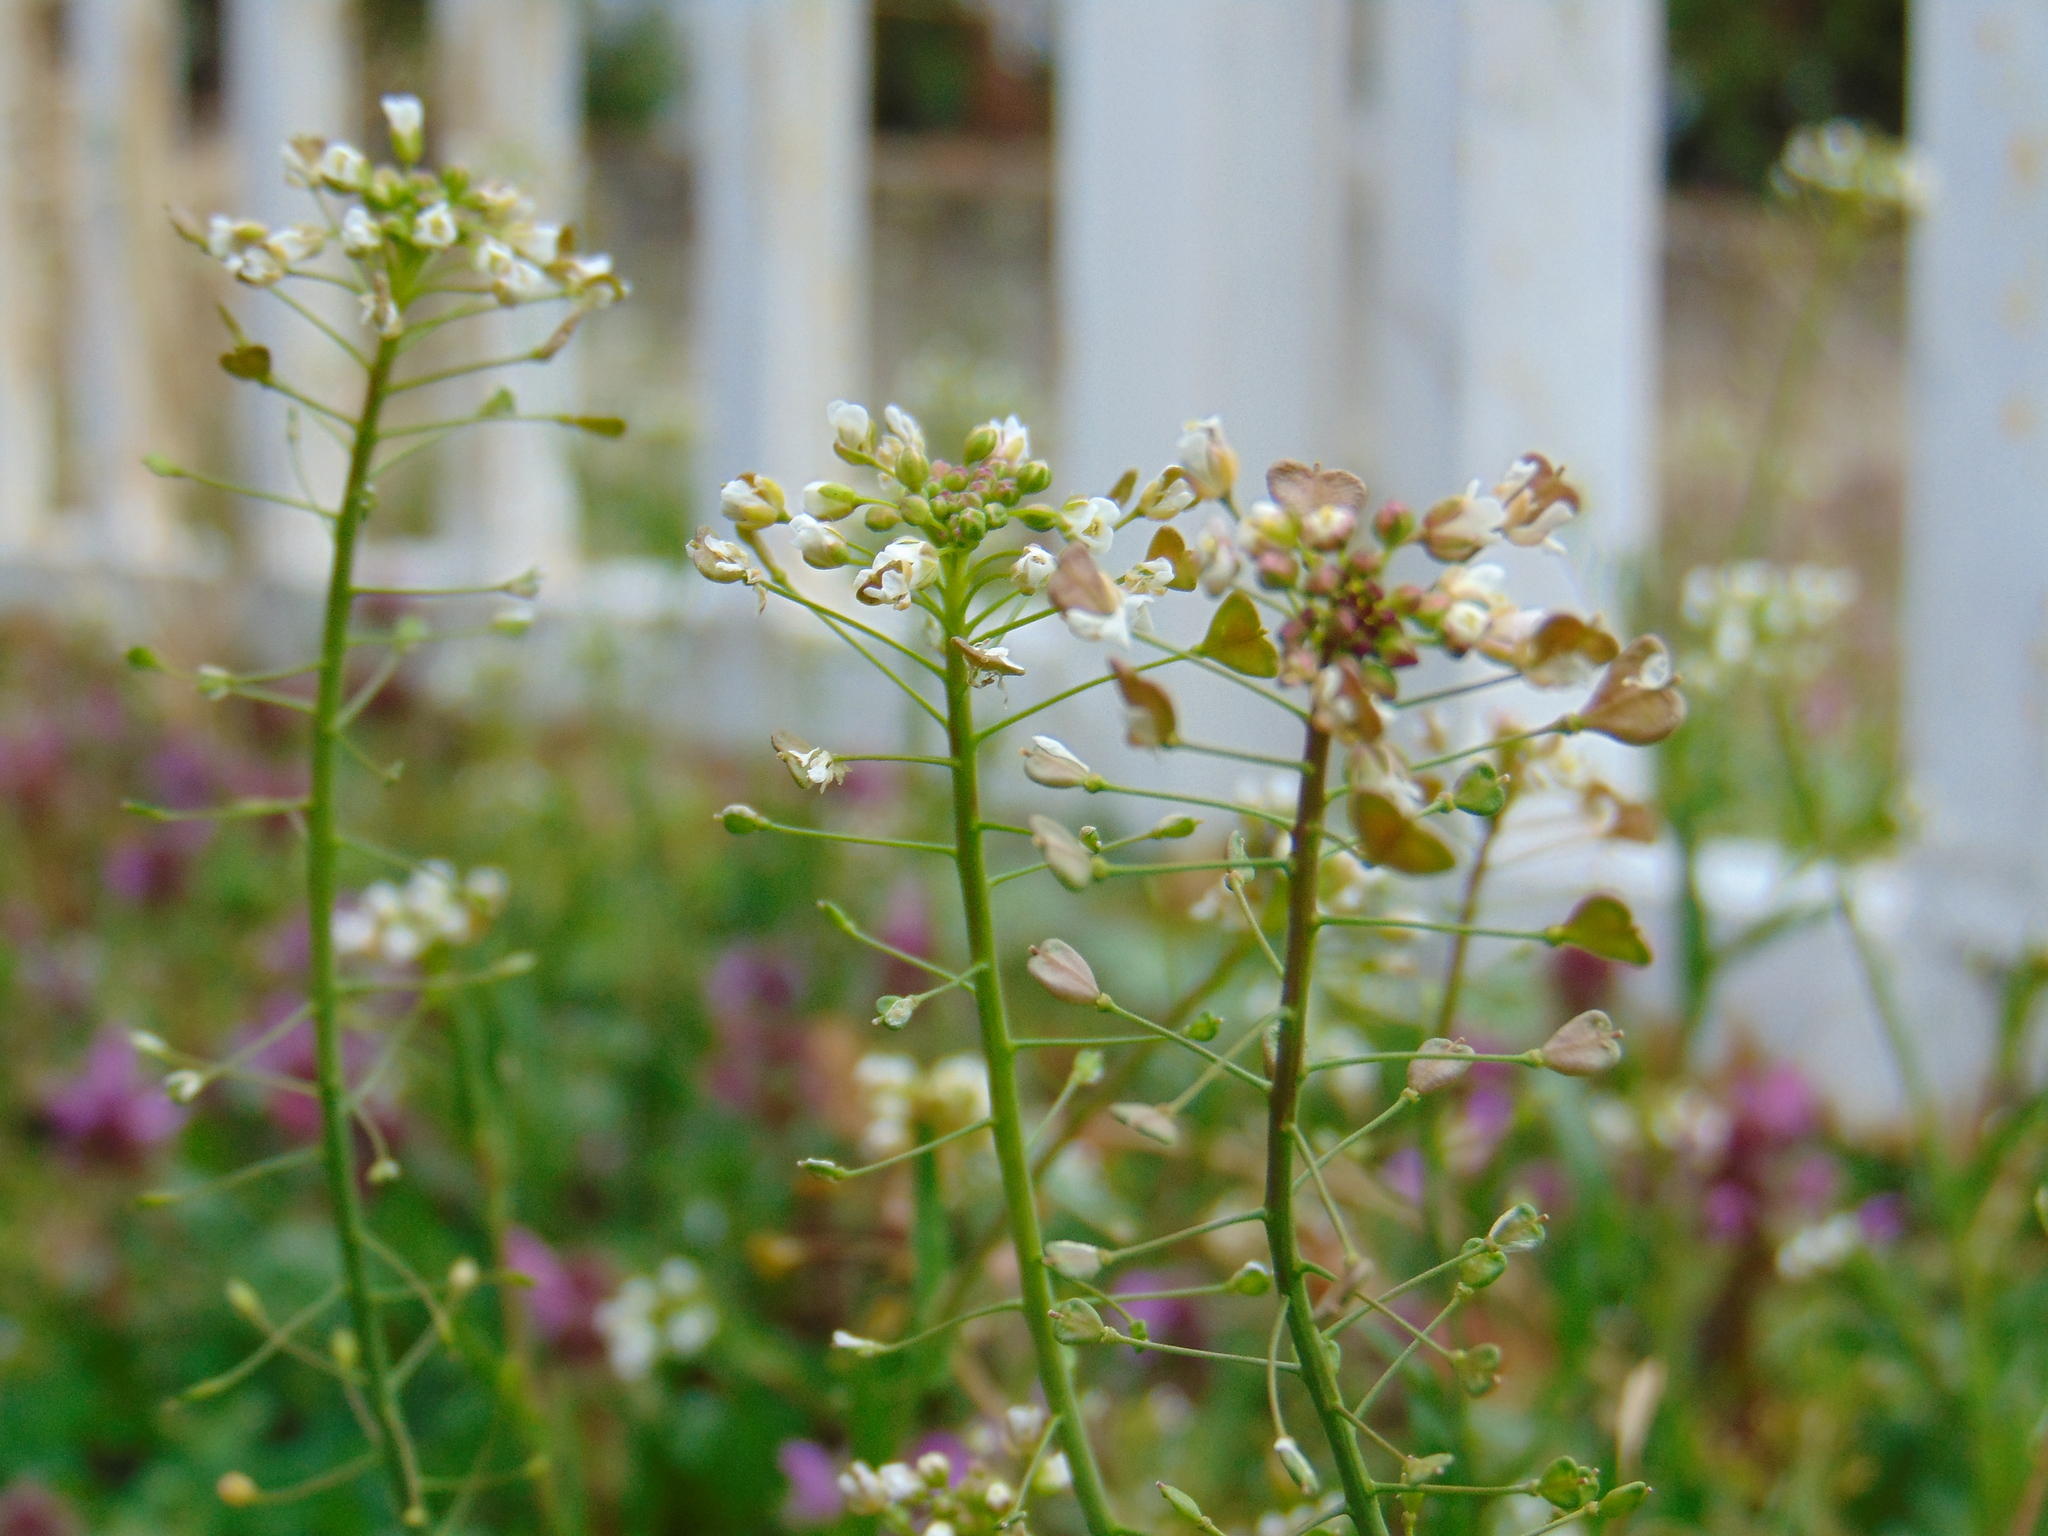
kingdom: Plantae
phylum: Tracheophyta
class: Magnoliopsida
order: Brassicales
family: Brassicaceae
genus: Capsella
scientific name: Capsella bursa-pastoris
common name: Shepherd's purse
